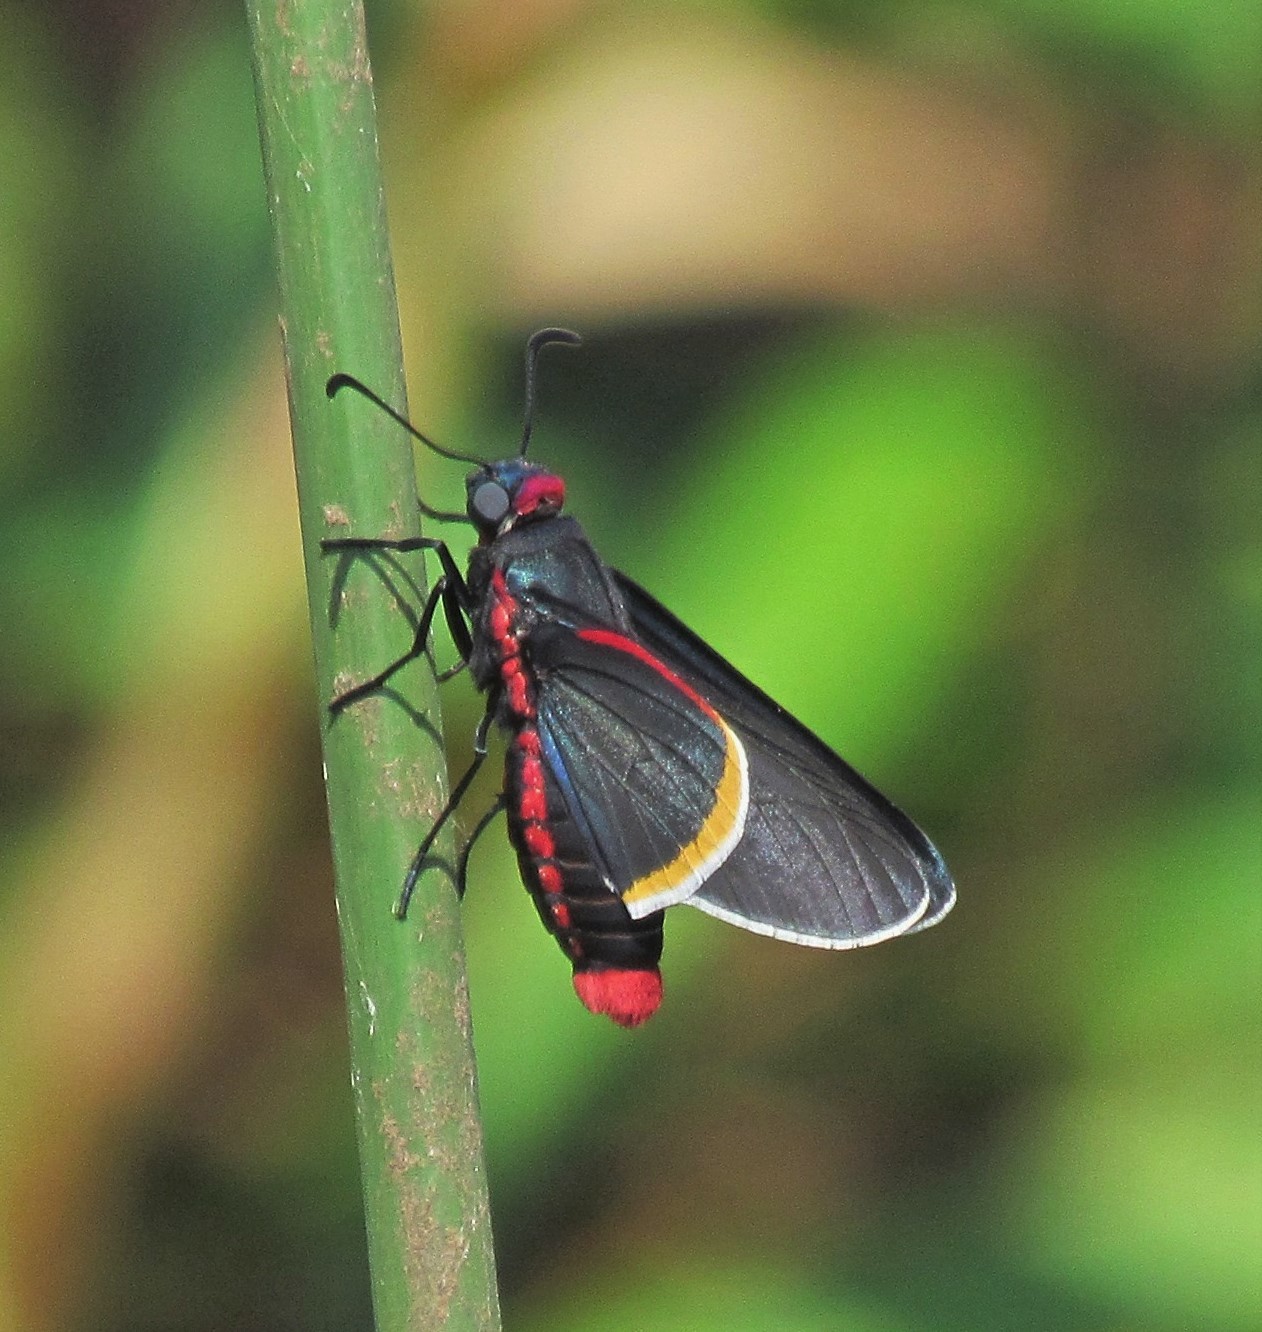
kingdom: Animalia
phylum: Arthropoda
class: Insecta
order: Lepidoptera
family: Hesperiidae
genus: Mysoria
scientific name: Mysoria barcastus
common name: Royal firetip
